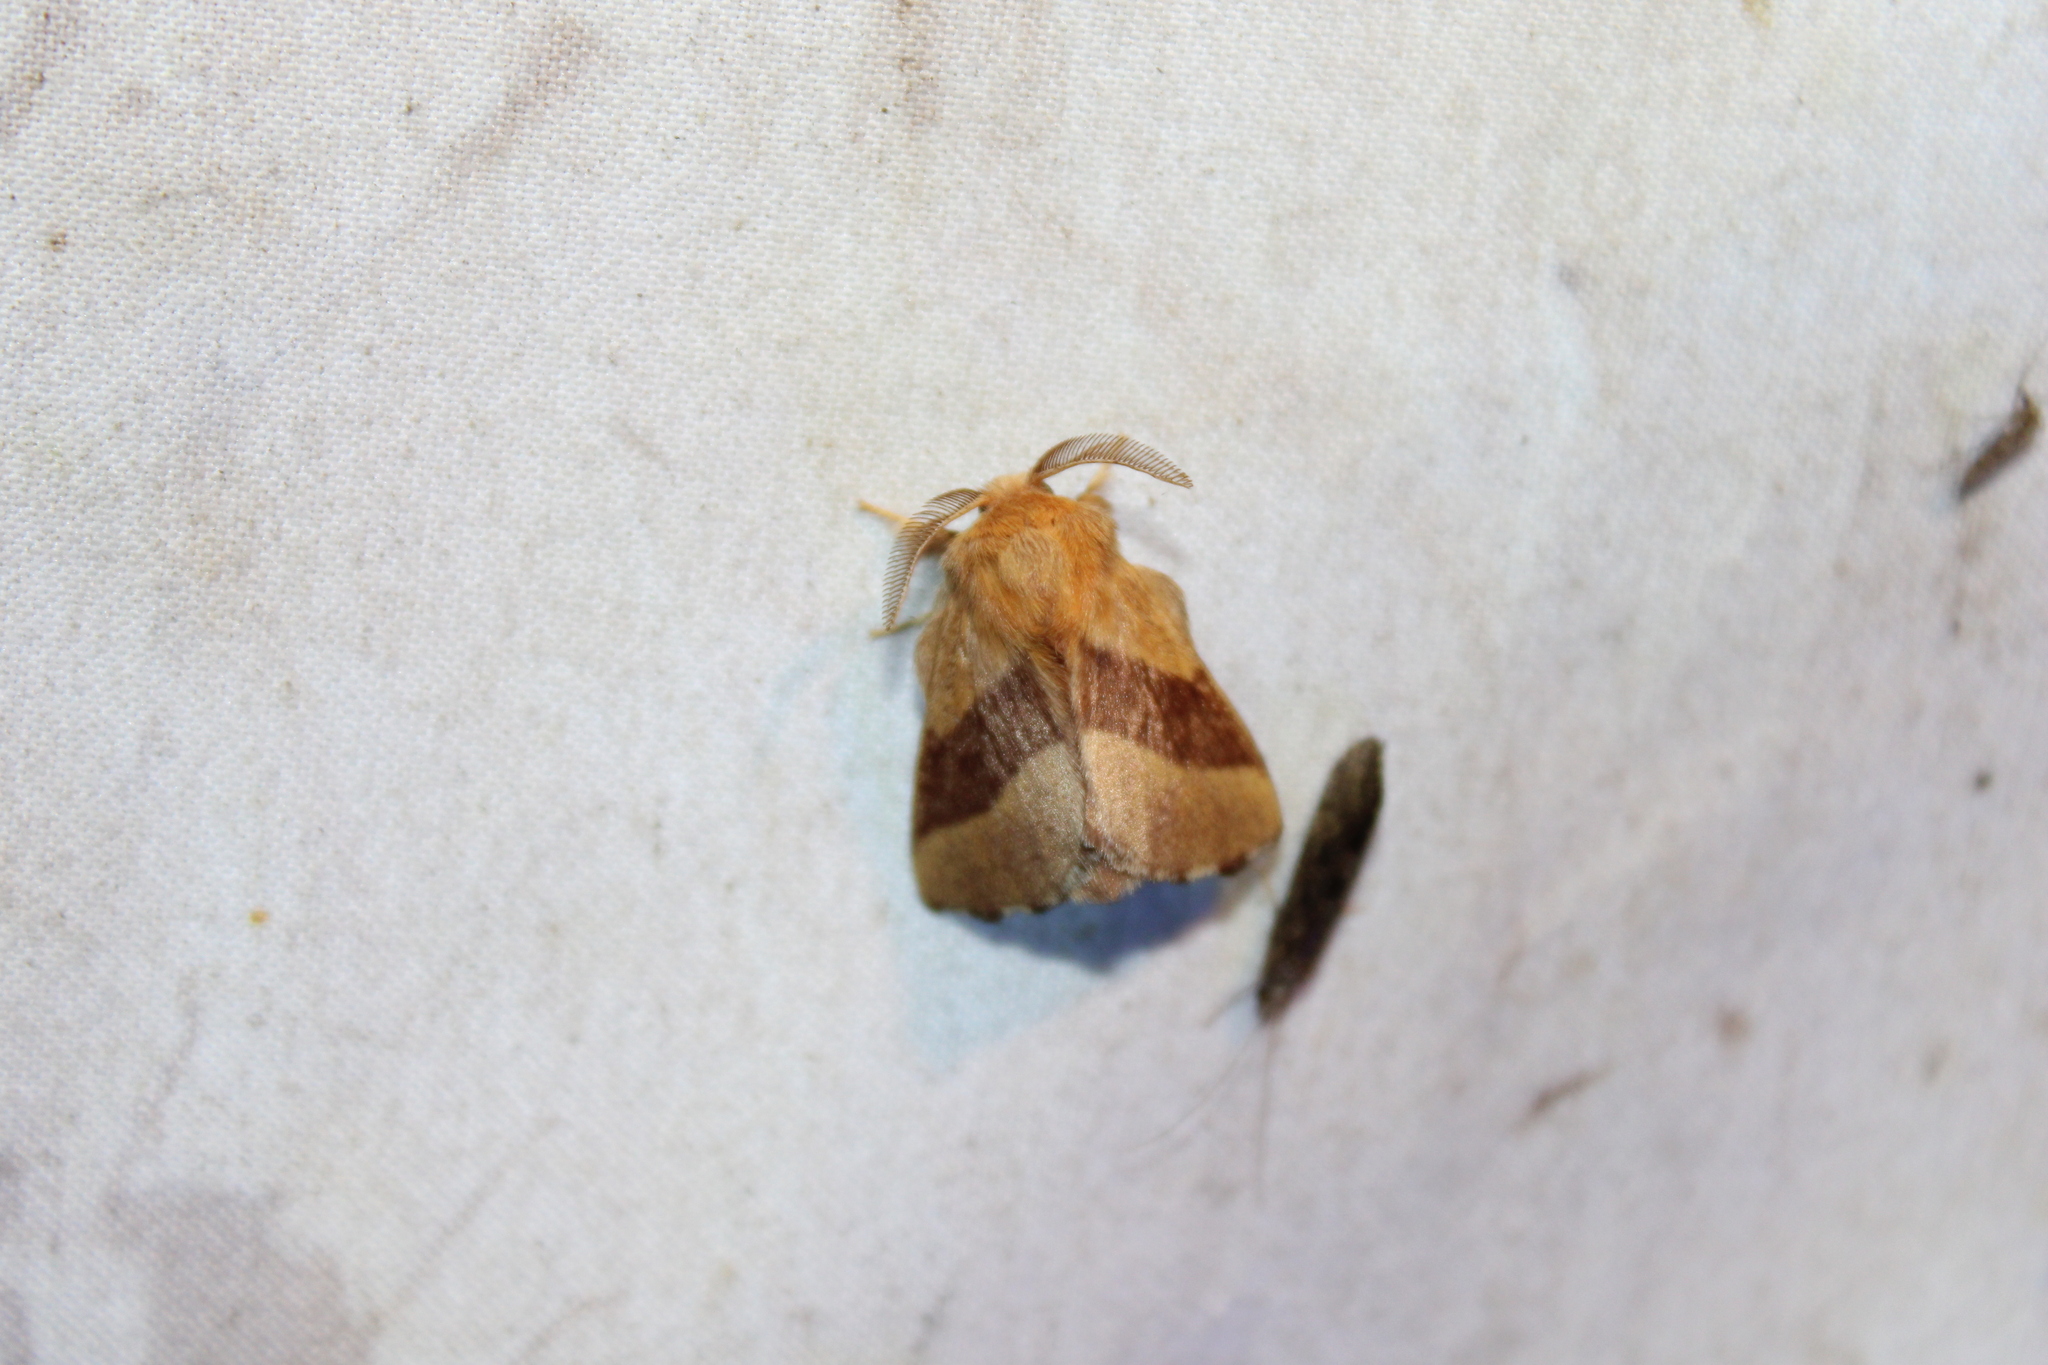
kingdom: Animalia
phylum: Arthropoda
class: Insecta
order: Lepidoptera
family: Lasiocampidae
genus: Malacosoma
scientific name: Malacosoma disstria
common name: Forest tent caterpillar
